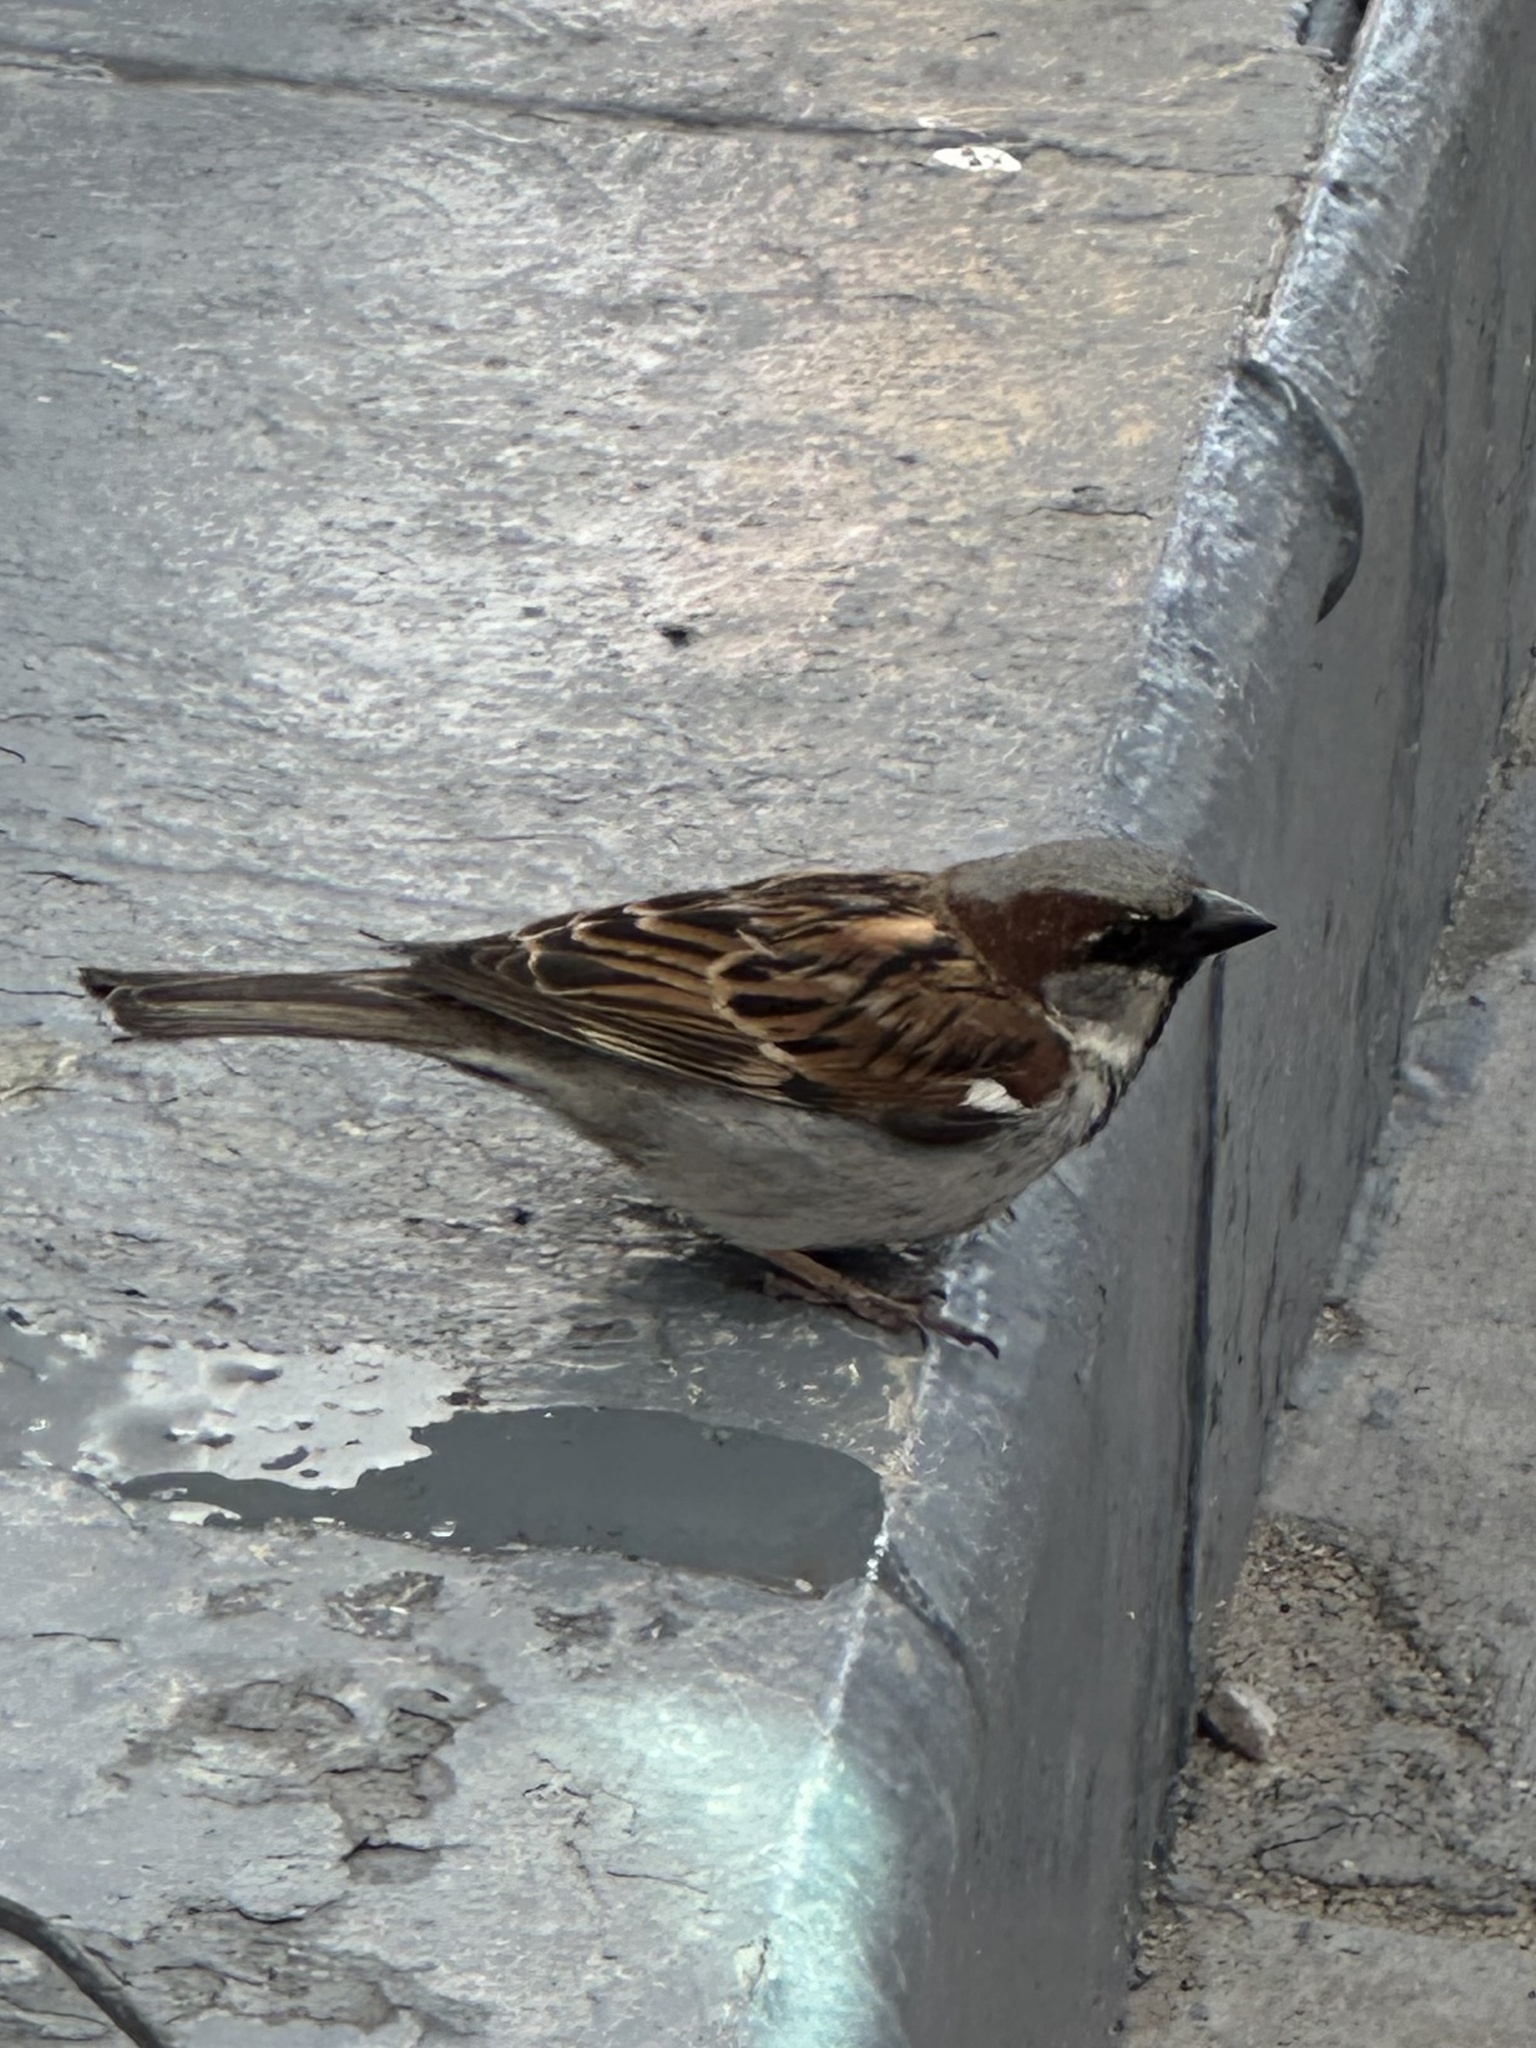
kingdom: Animalia
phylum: Chordata
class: Aves
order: Passeriformes
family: Passeridae
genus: Passer
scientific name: Passer domesticus
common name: House sparrow
